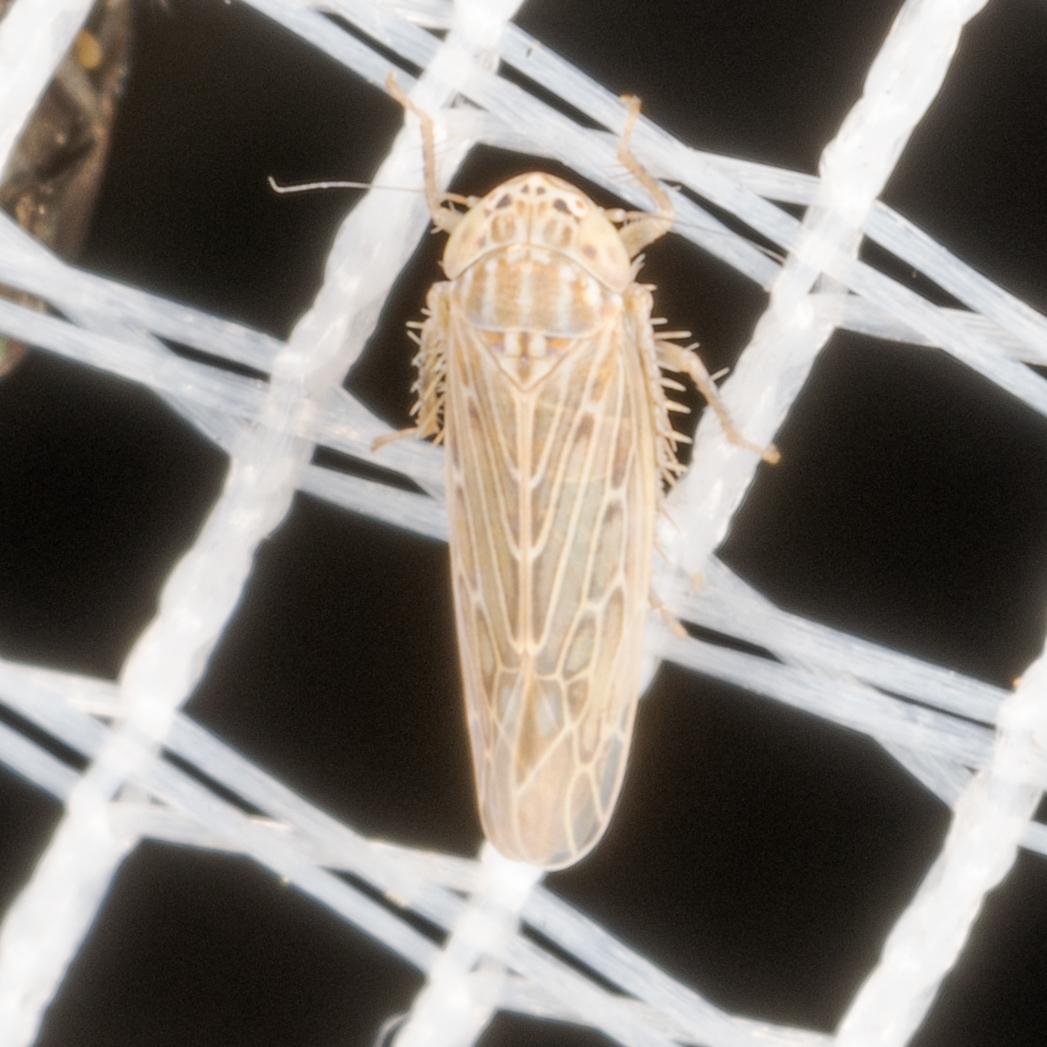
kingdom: Animalia
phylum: Arthropoda
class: Insecta
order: Hemiptera
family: Cicadellidae
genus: Graminella
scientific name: Graminella sonora
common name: Lesser lawn leafhopper
